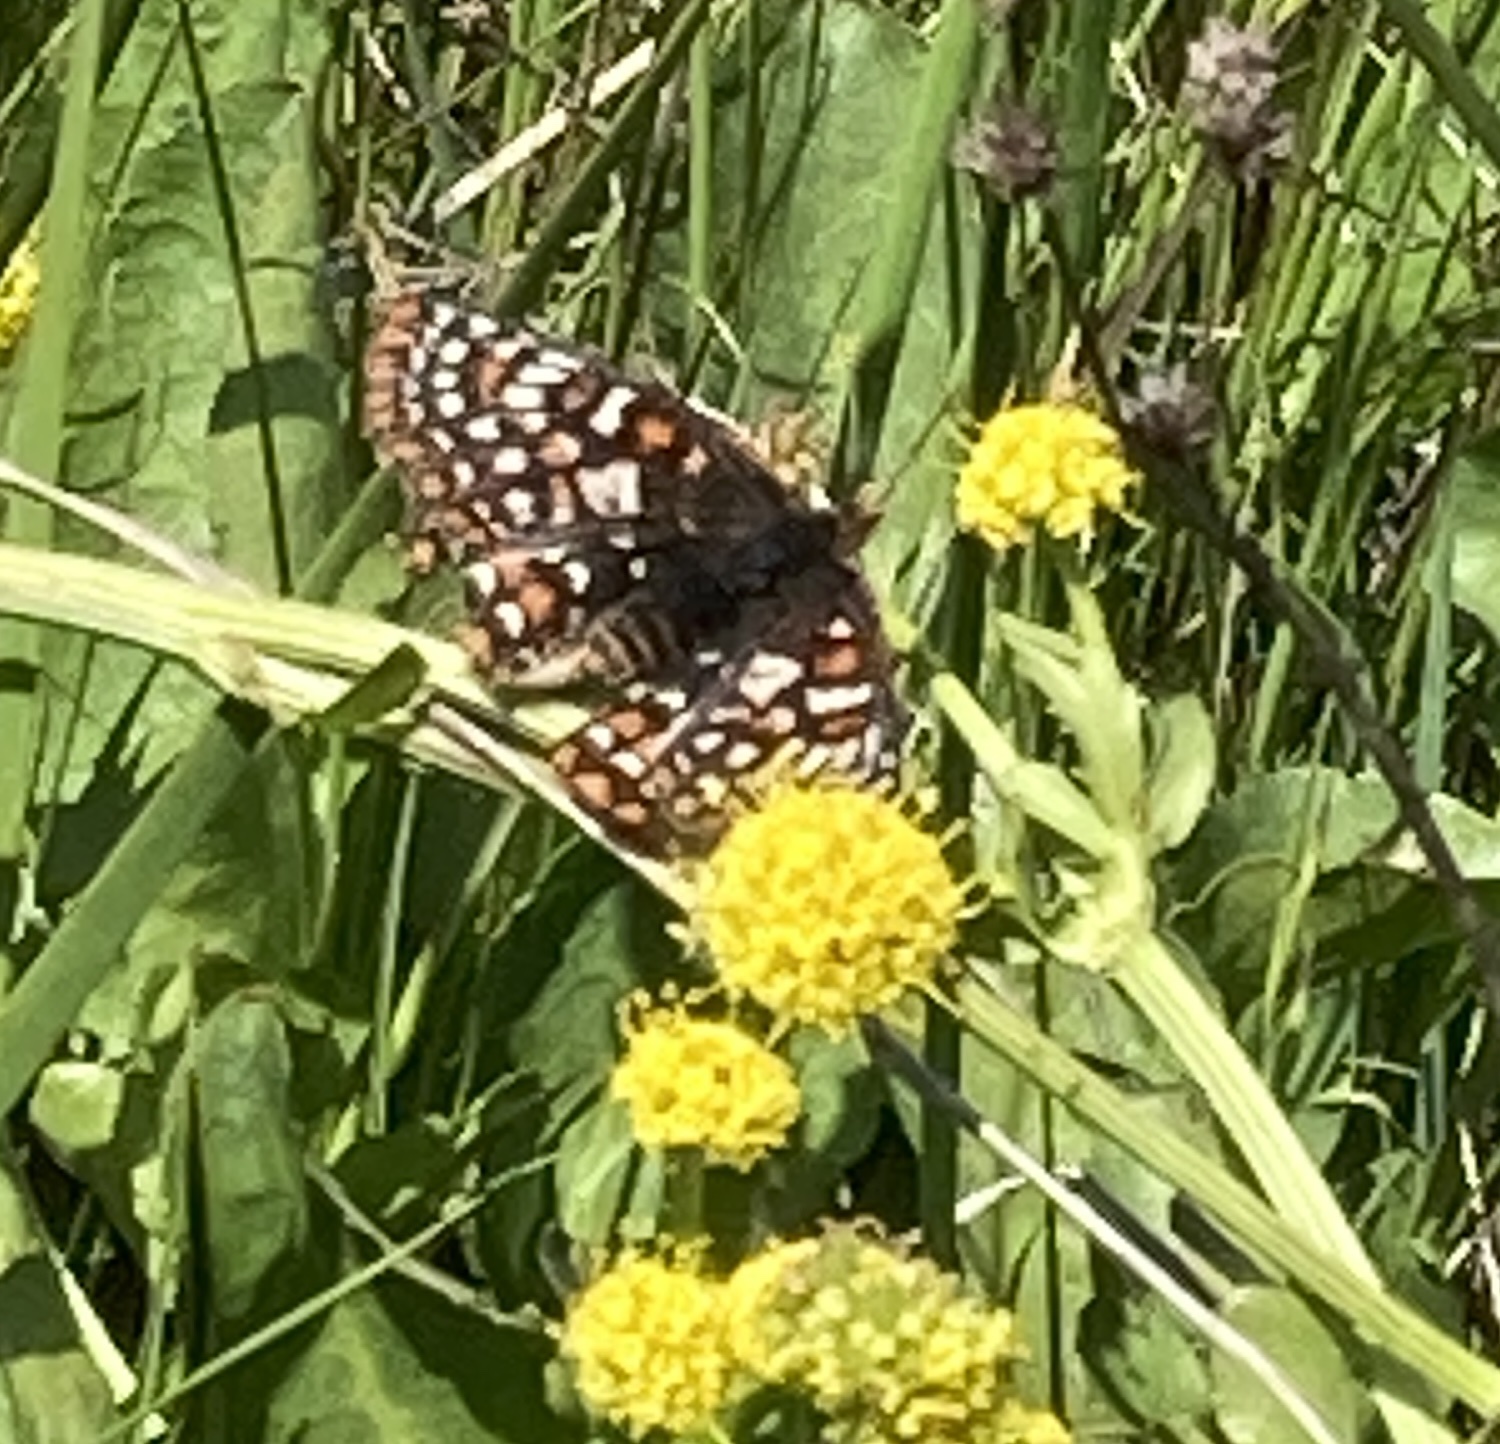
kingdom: Animalia
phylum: Arthropoda
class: Insecta
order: Lepidoptera
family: Nymphalidae
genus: Occidryas
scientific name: Occidryas editha
